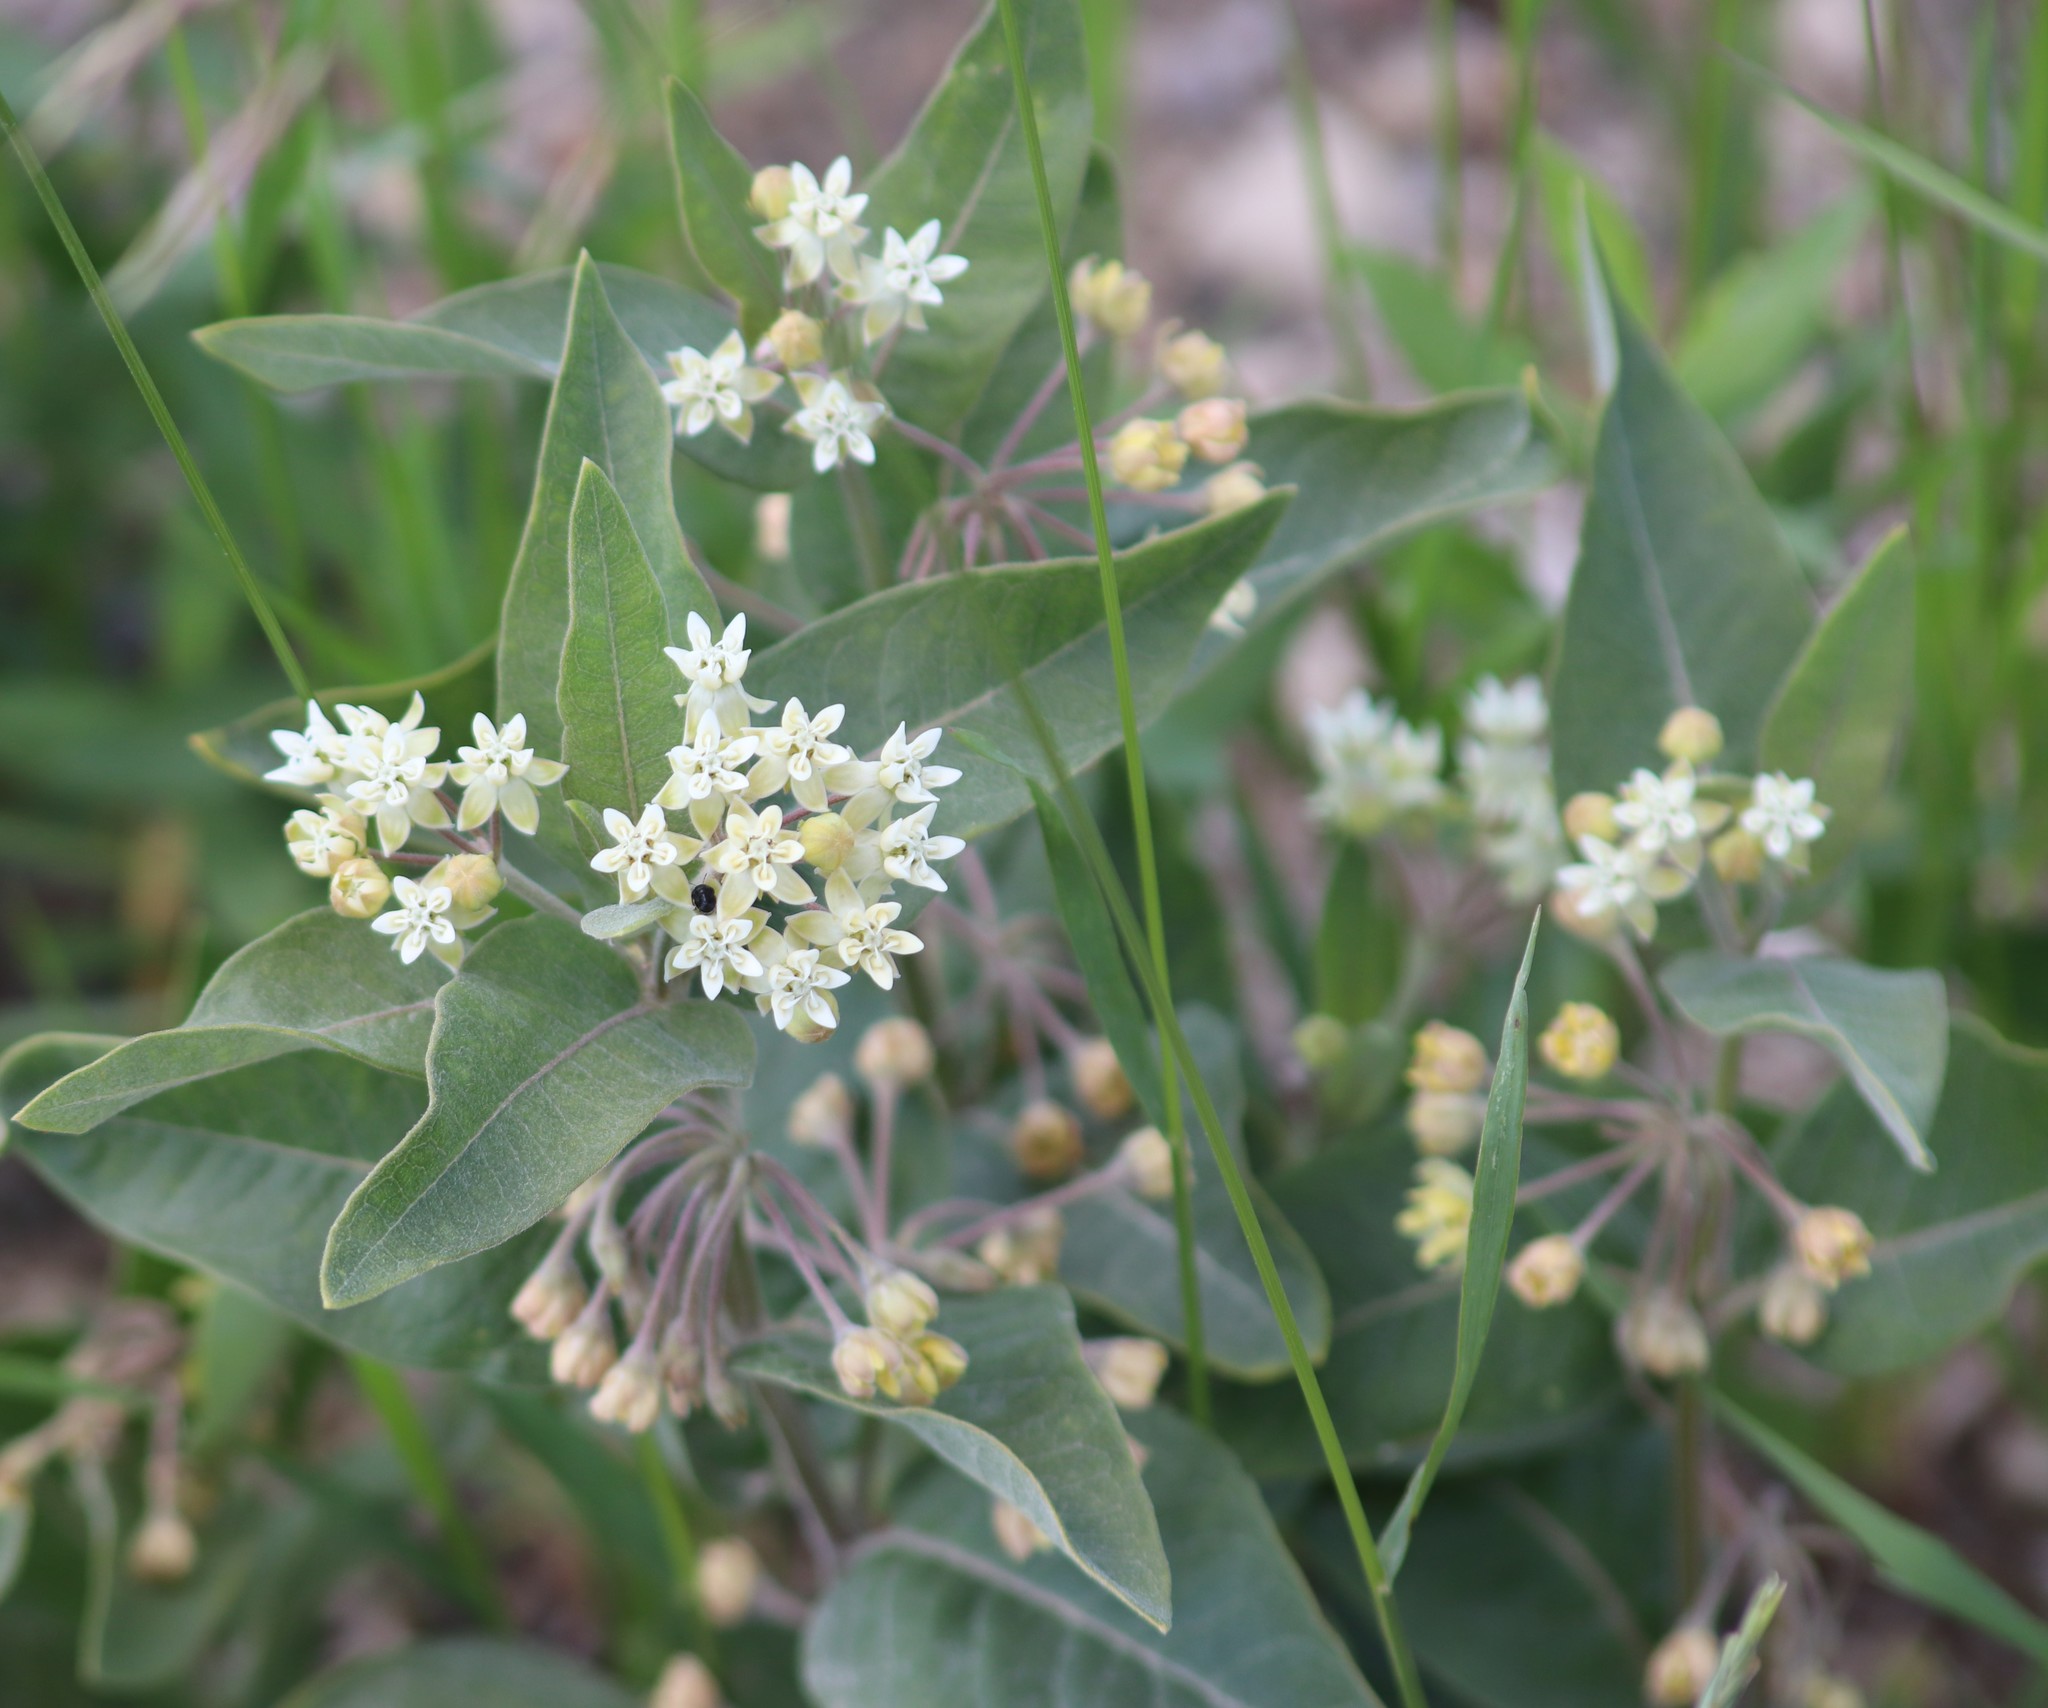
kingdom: Plantae
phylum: Tracheophyta
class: Magnoliopsida
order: Gentianales
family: Apocynaceae
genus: Asclepias
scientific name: Asclepias ovalifolia
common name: Dwarf milkweed
